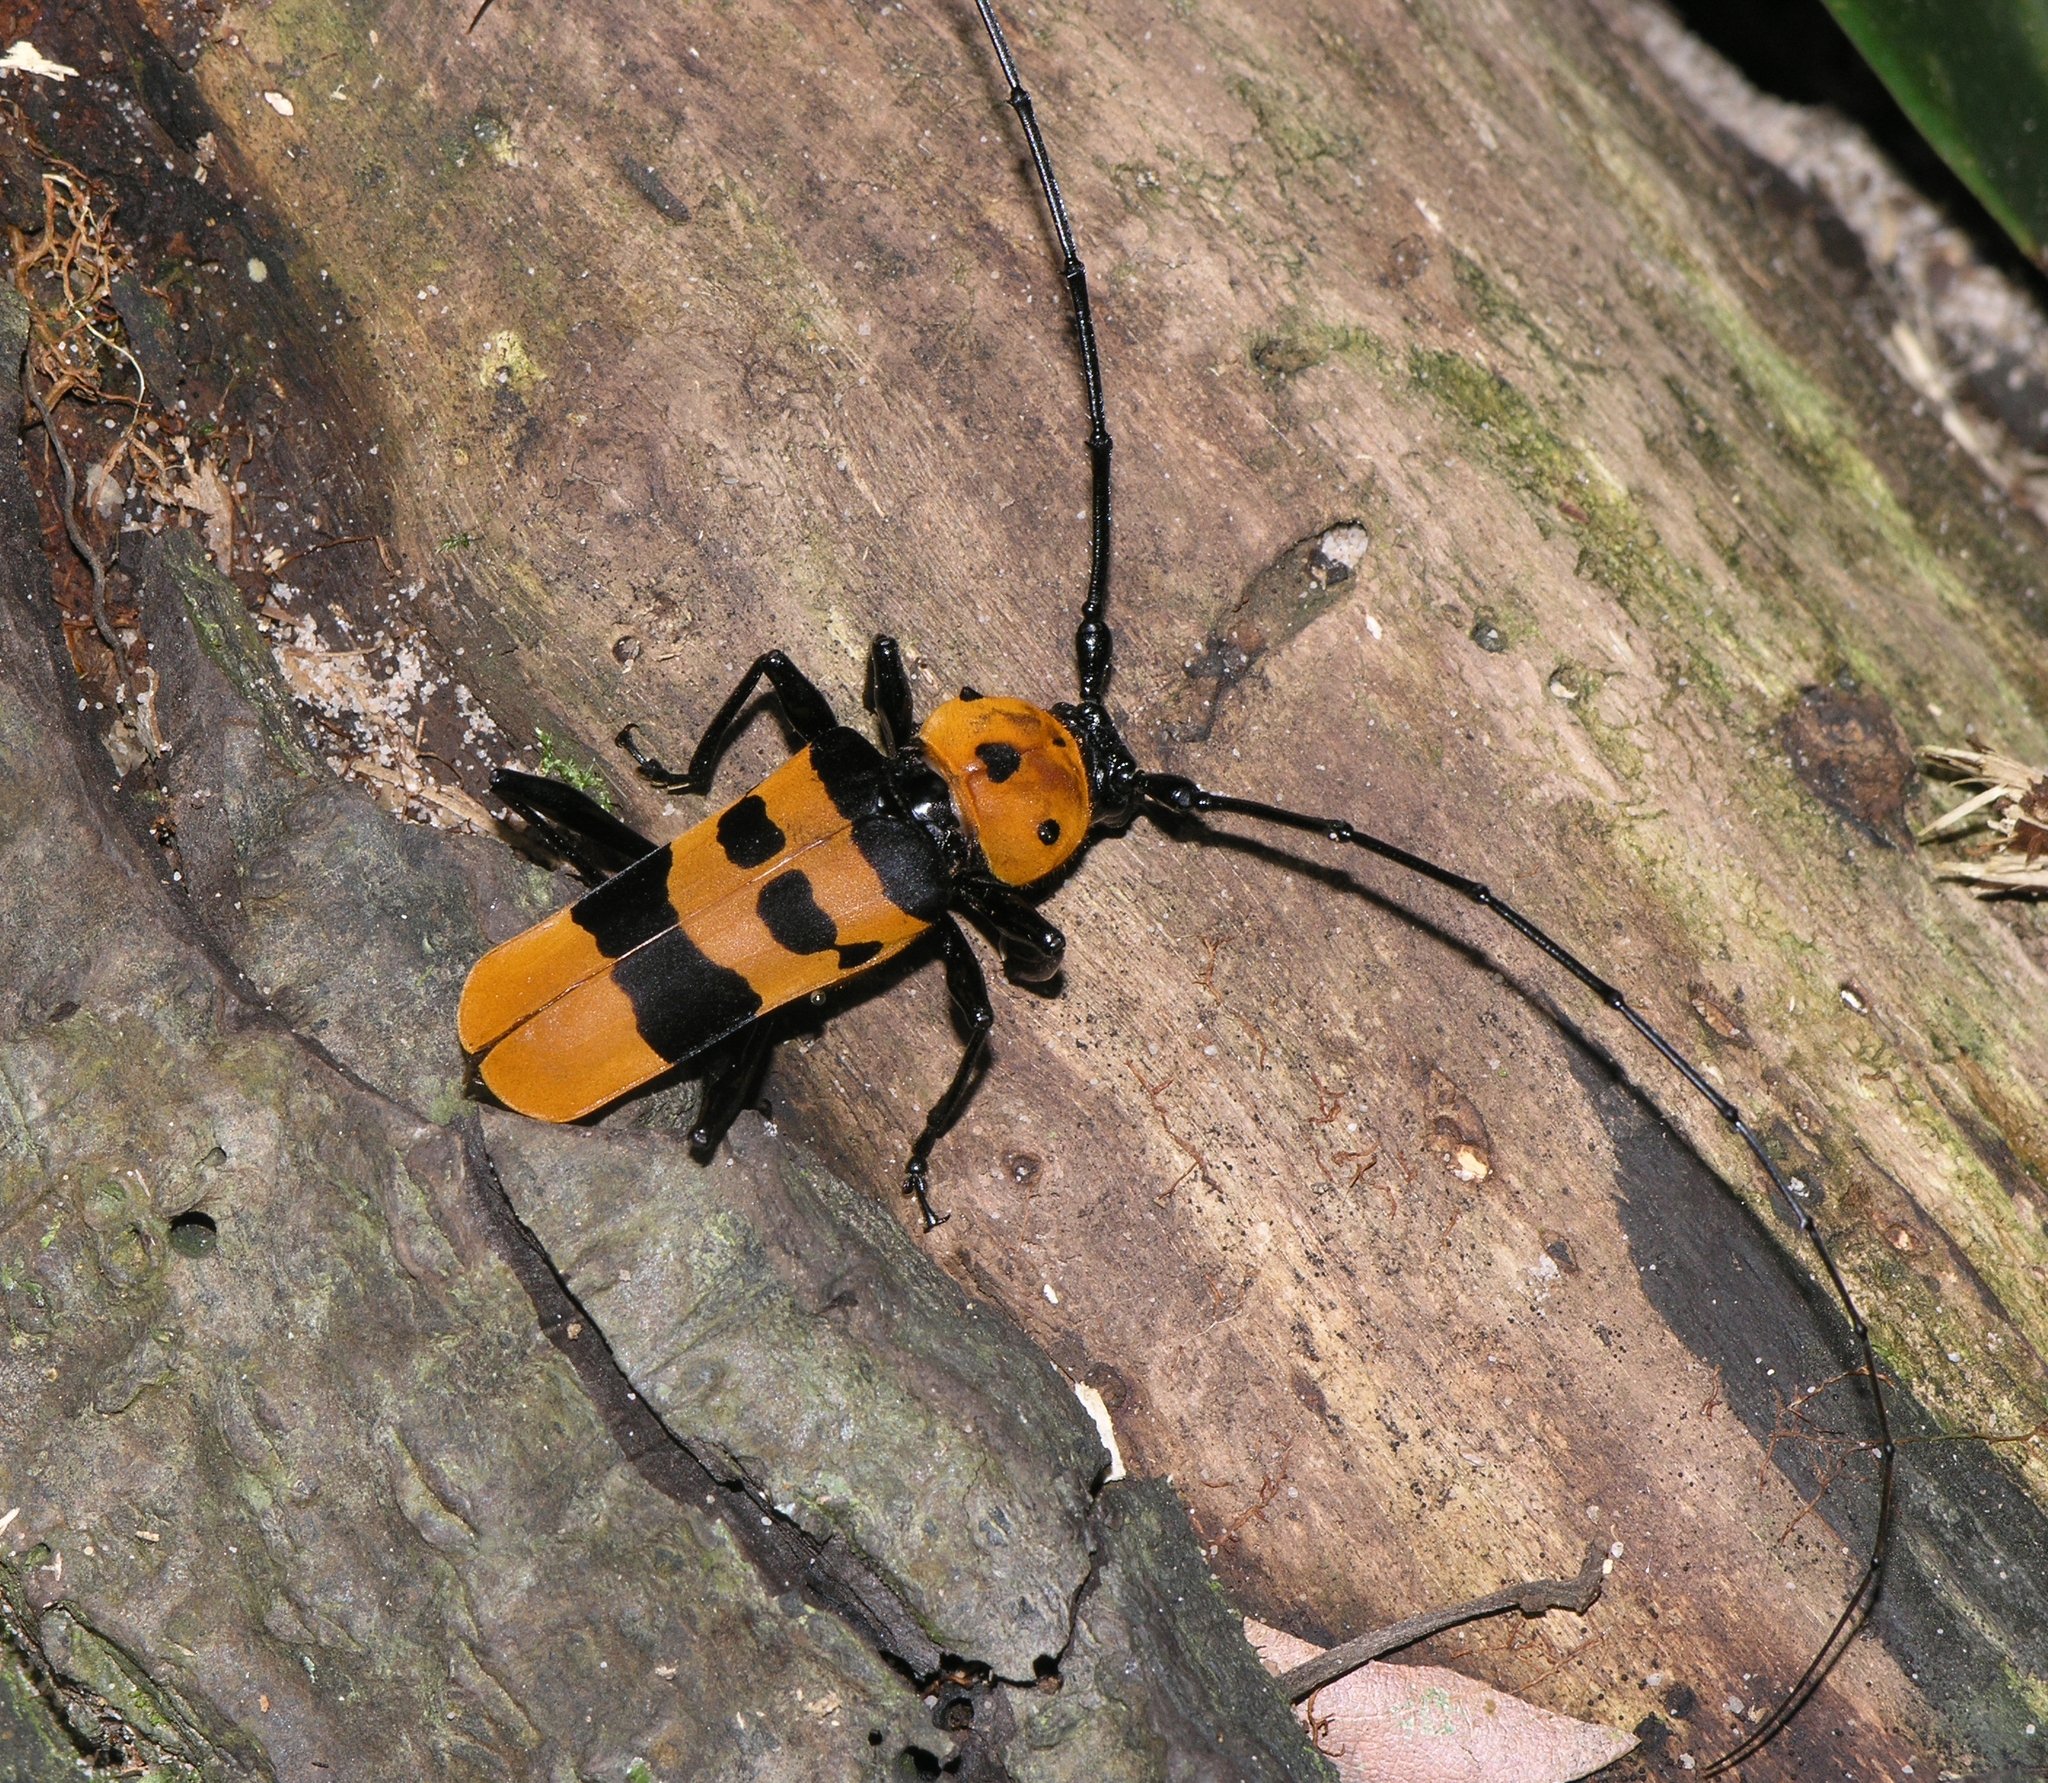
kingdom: Animalia
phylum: Arthropoda
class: Insecta
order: Coleoptera
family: Cerambycidae
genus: Rosalia
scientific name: Rosalia formosa
